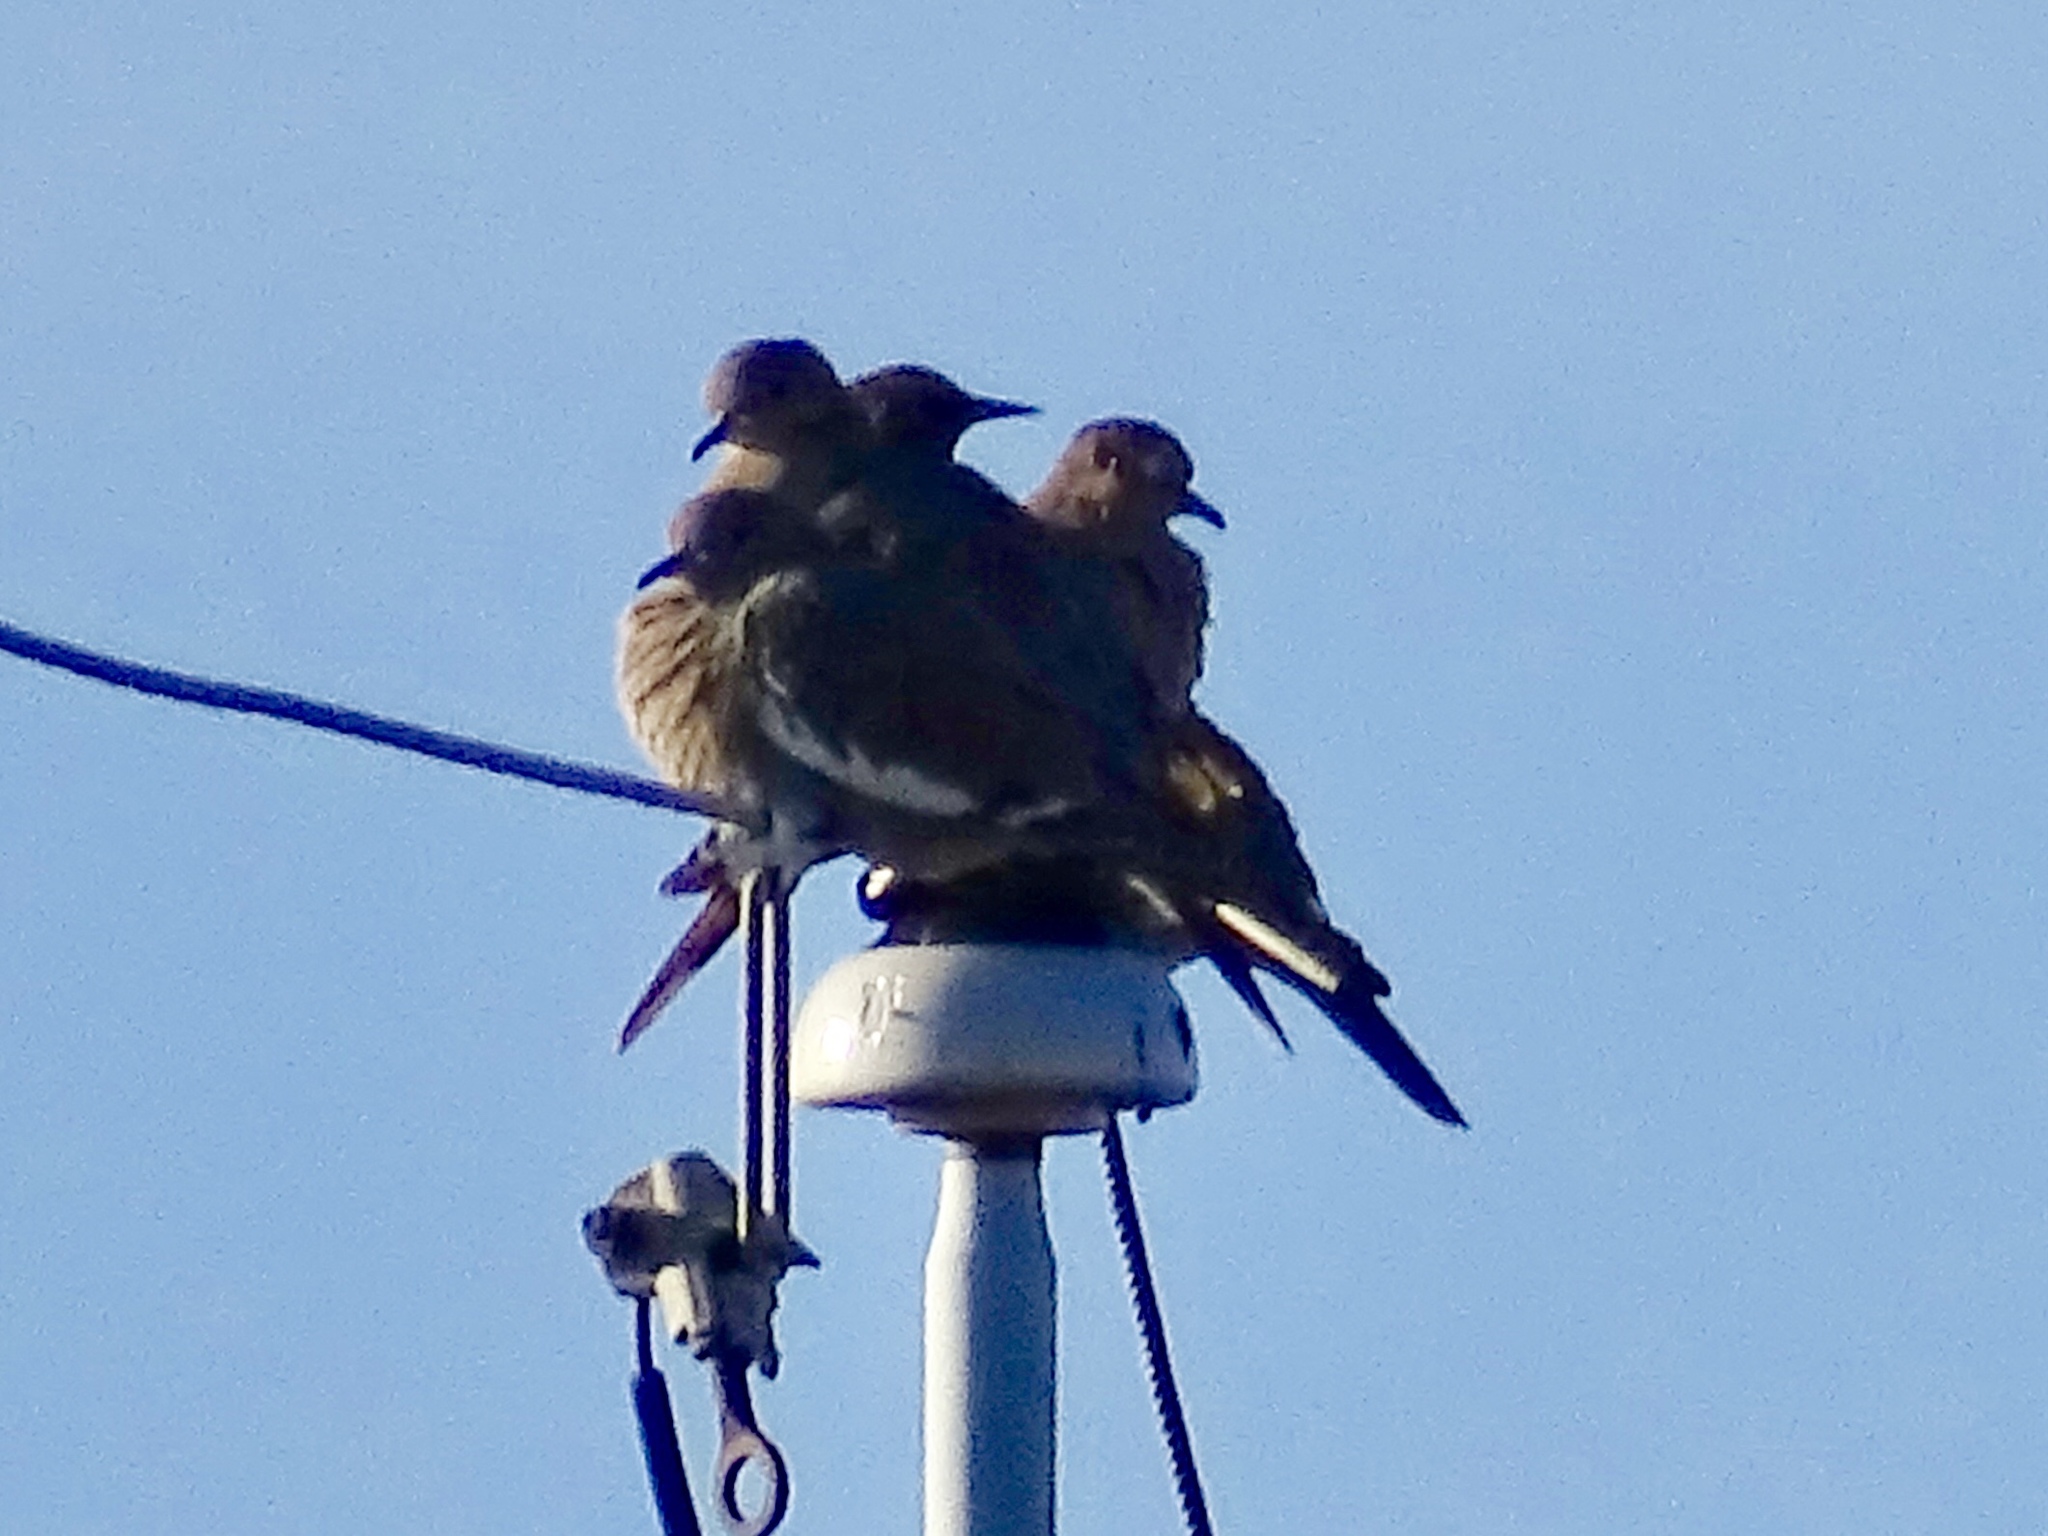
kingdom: Animalia
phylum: Chordata
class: Aves
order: Columbiformes
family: Columbidae
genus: Zenaida
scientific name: Zenaida asiatica
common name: White-winged dove
